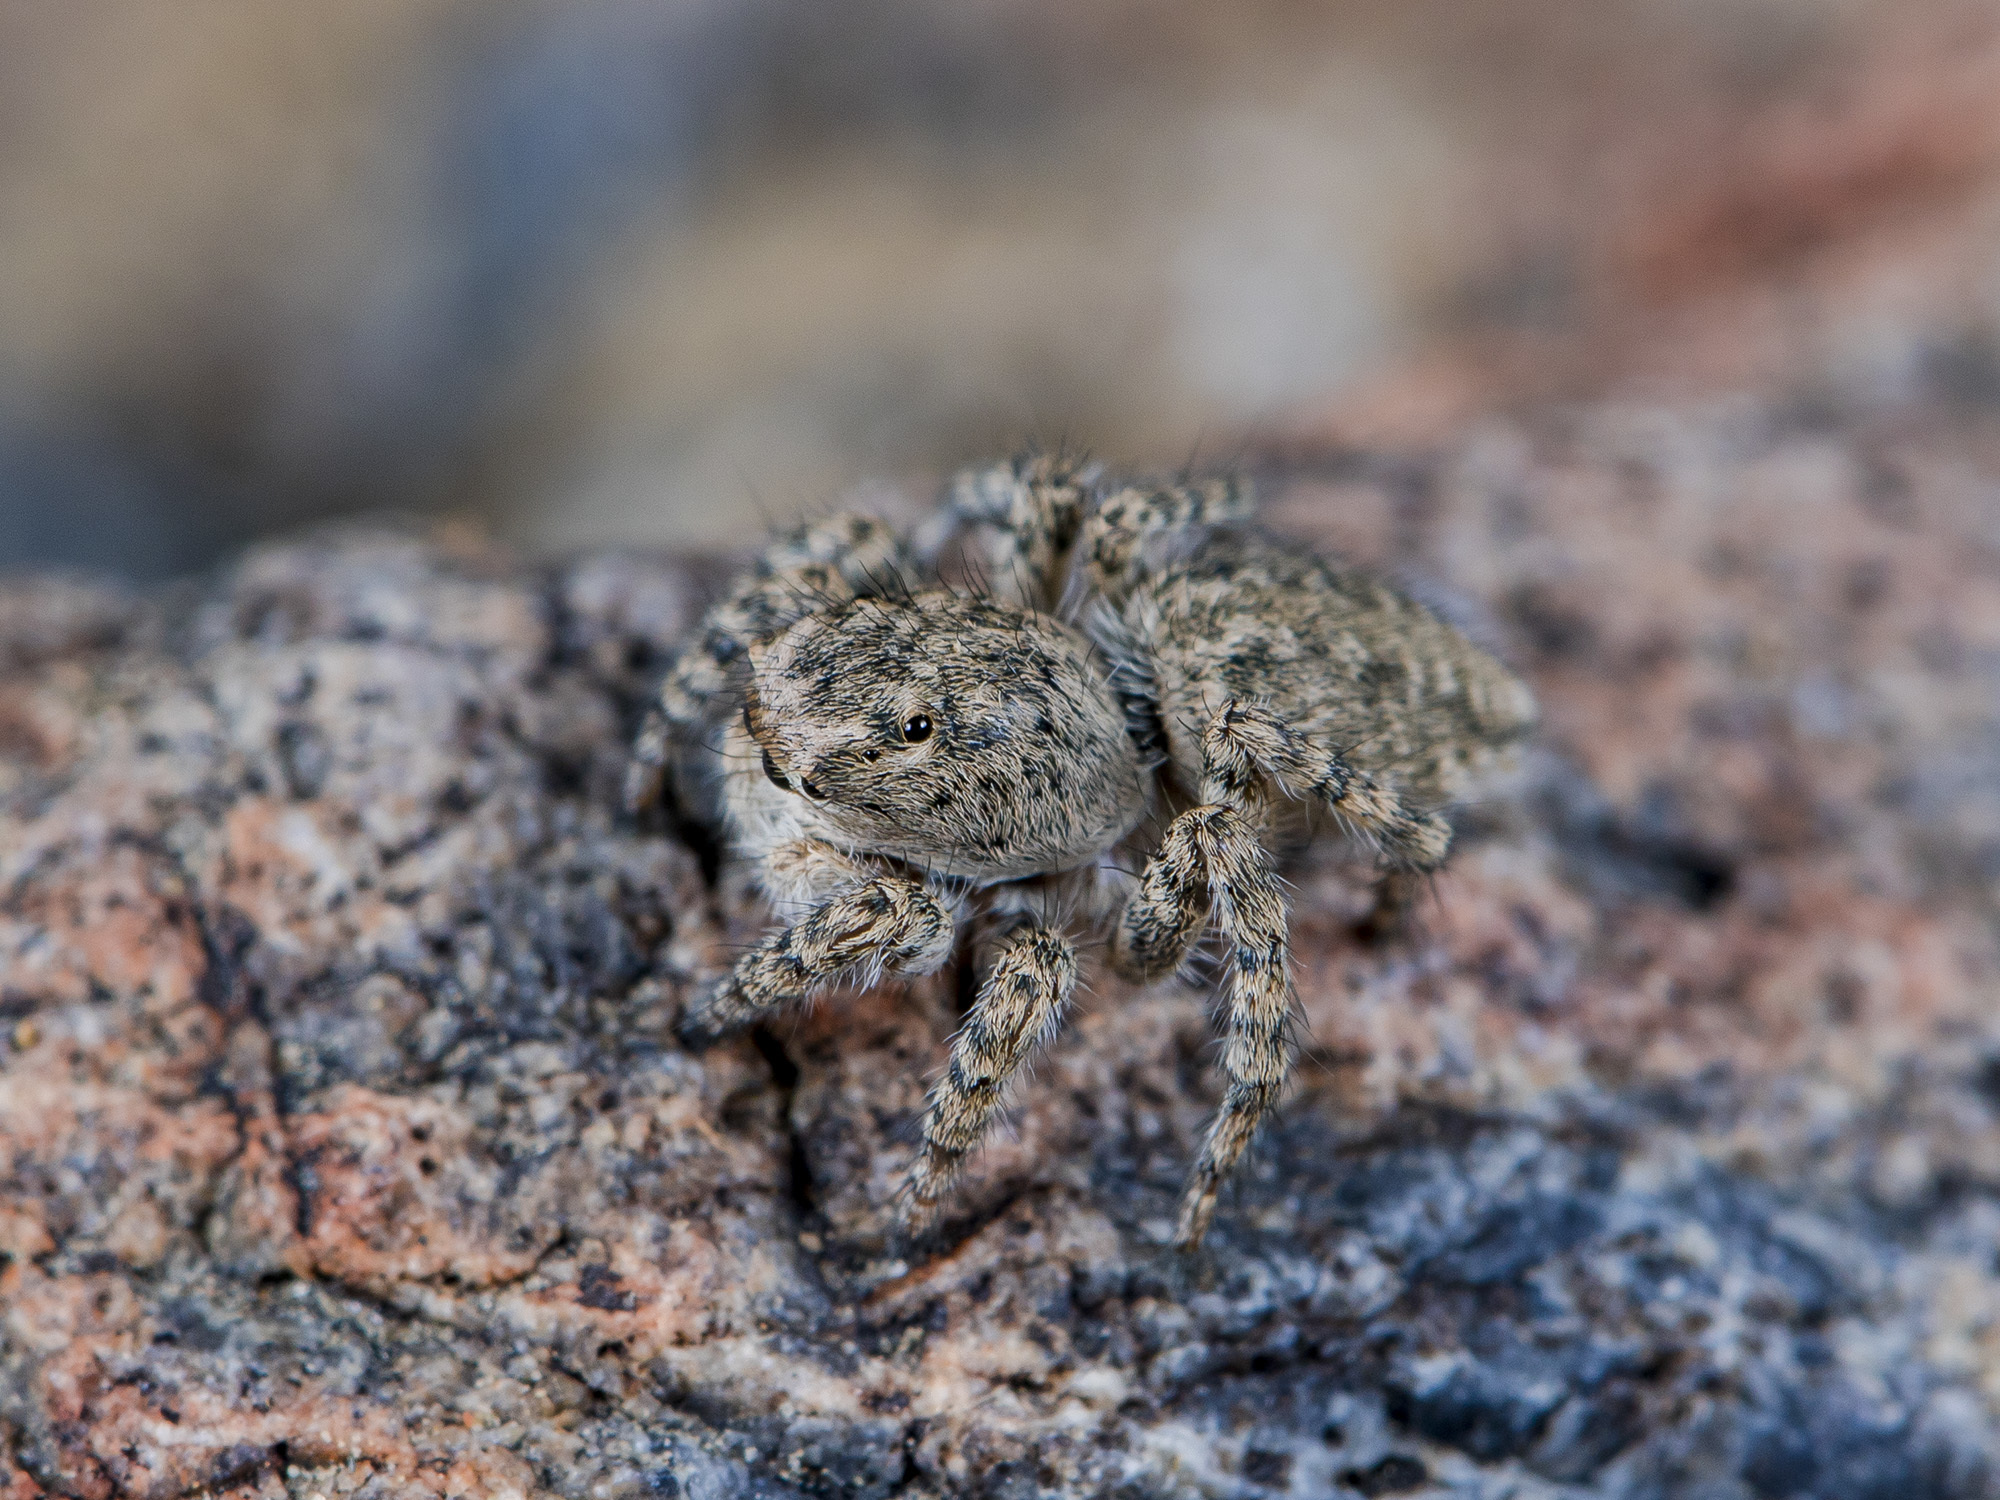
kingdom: Animalia
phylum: Arthropoda
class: Arachnida
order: Araneae
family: Salticidae
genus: Aelurillus
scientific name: Aelurillus dubatolovi
